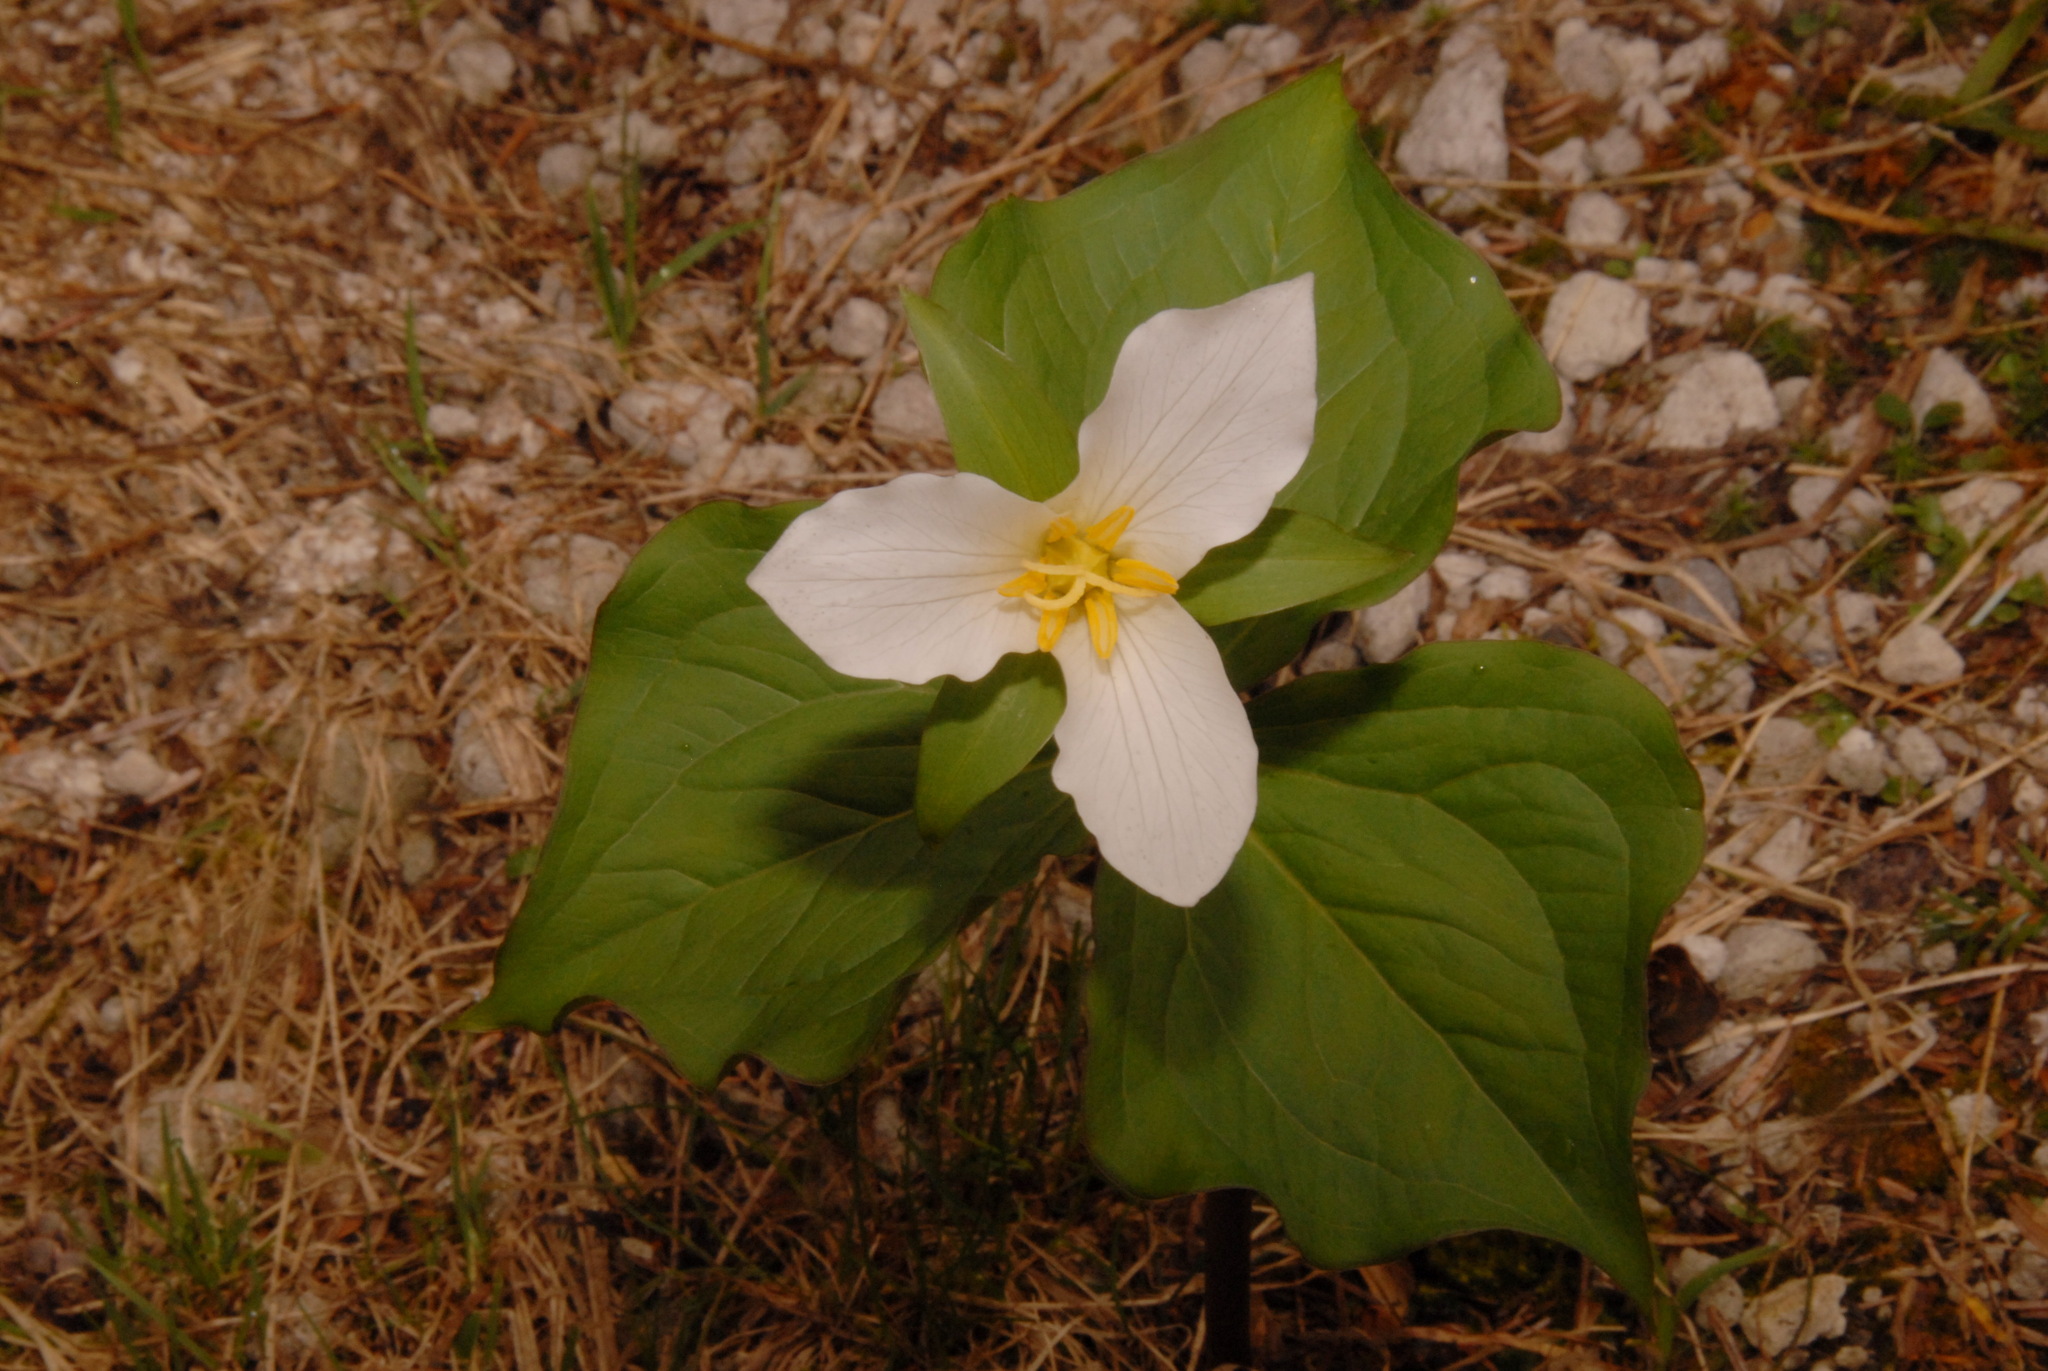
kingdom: Plantae
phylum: Tracheophyta
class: Liliopsida
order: Liliales
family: Melanthiaceae
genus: Trillium
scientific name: Trillium ovatum
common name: Pacific trillium
